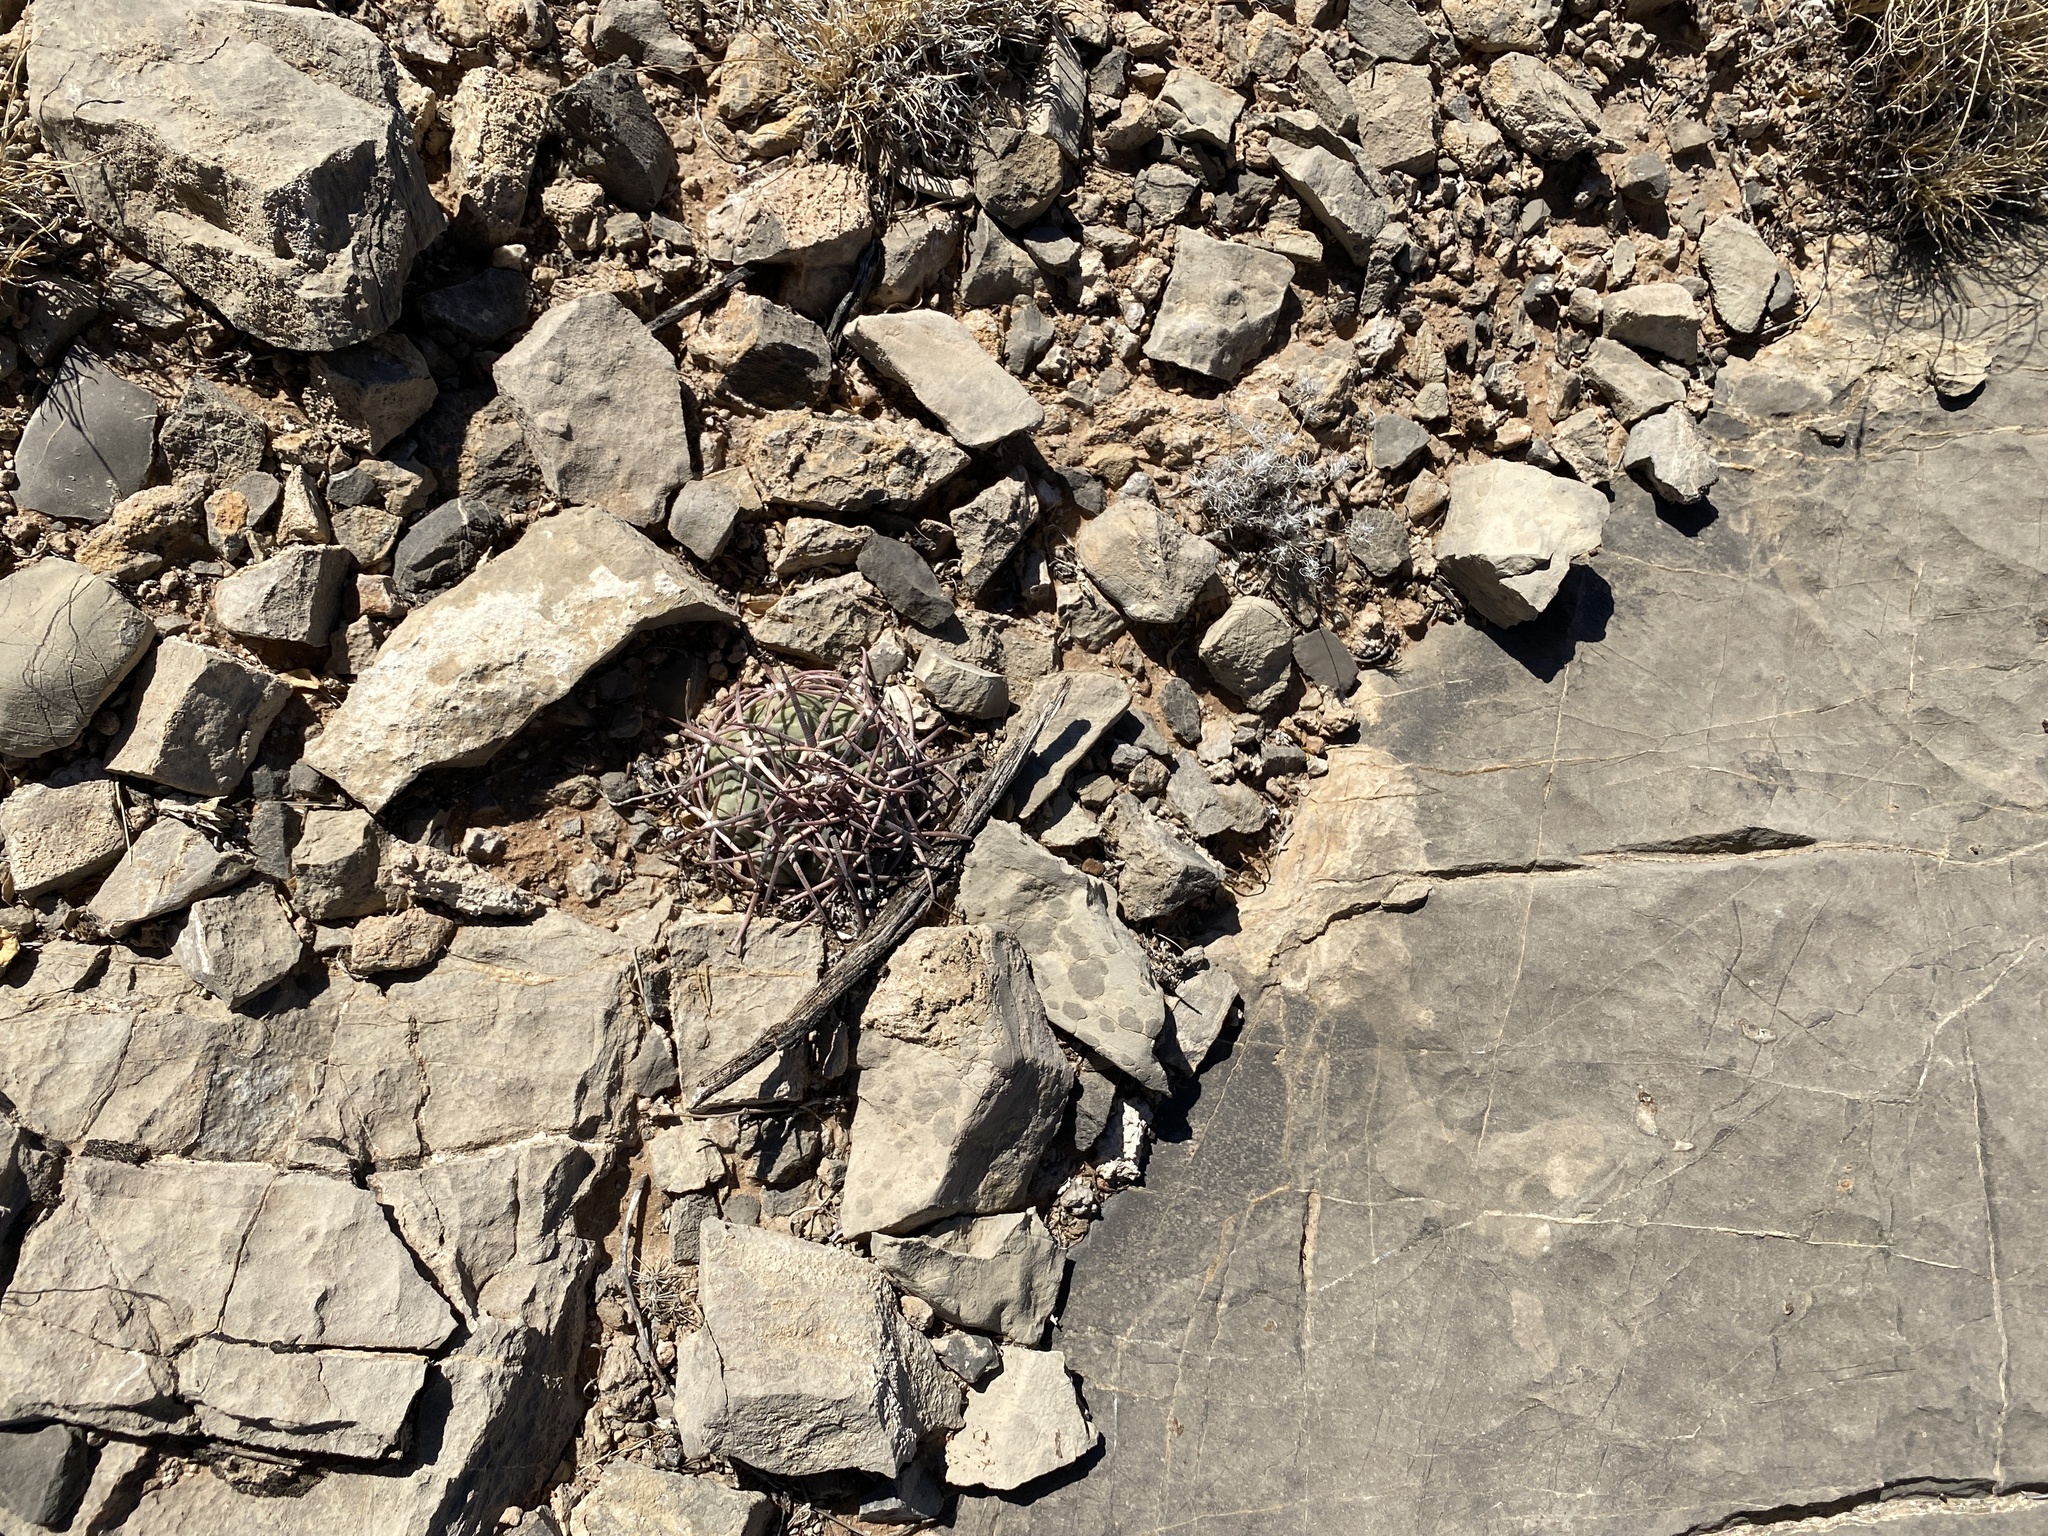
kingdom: Plantae
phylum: Tracheophyta
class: Magnoliopsida
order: Caryophyllales
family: Cactaceae
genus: Echinocactus
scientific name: Echinocactus horizonthalonius
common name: Devilshead
